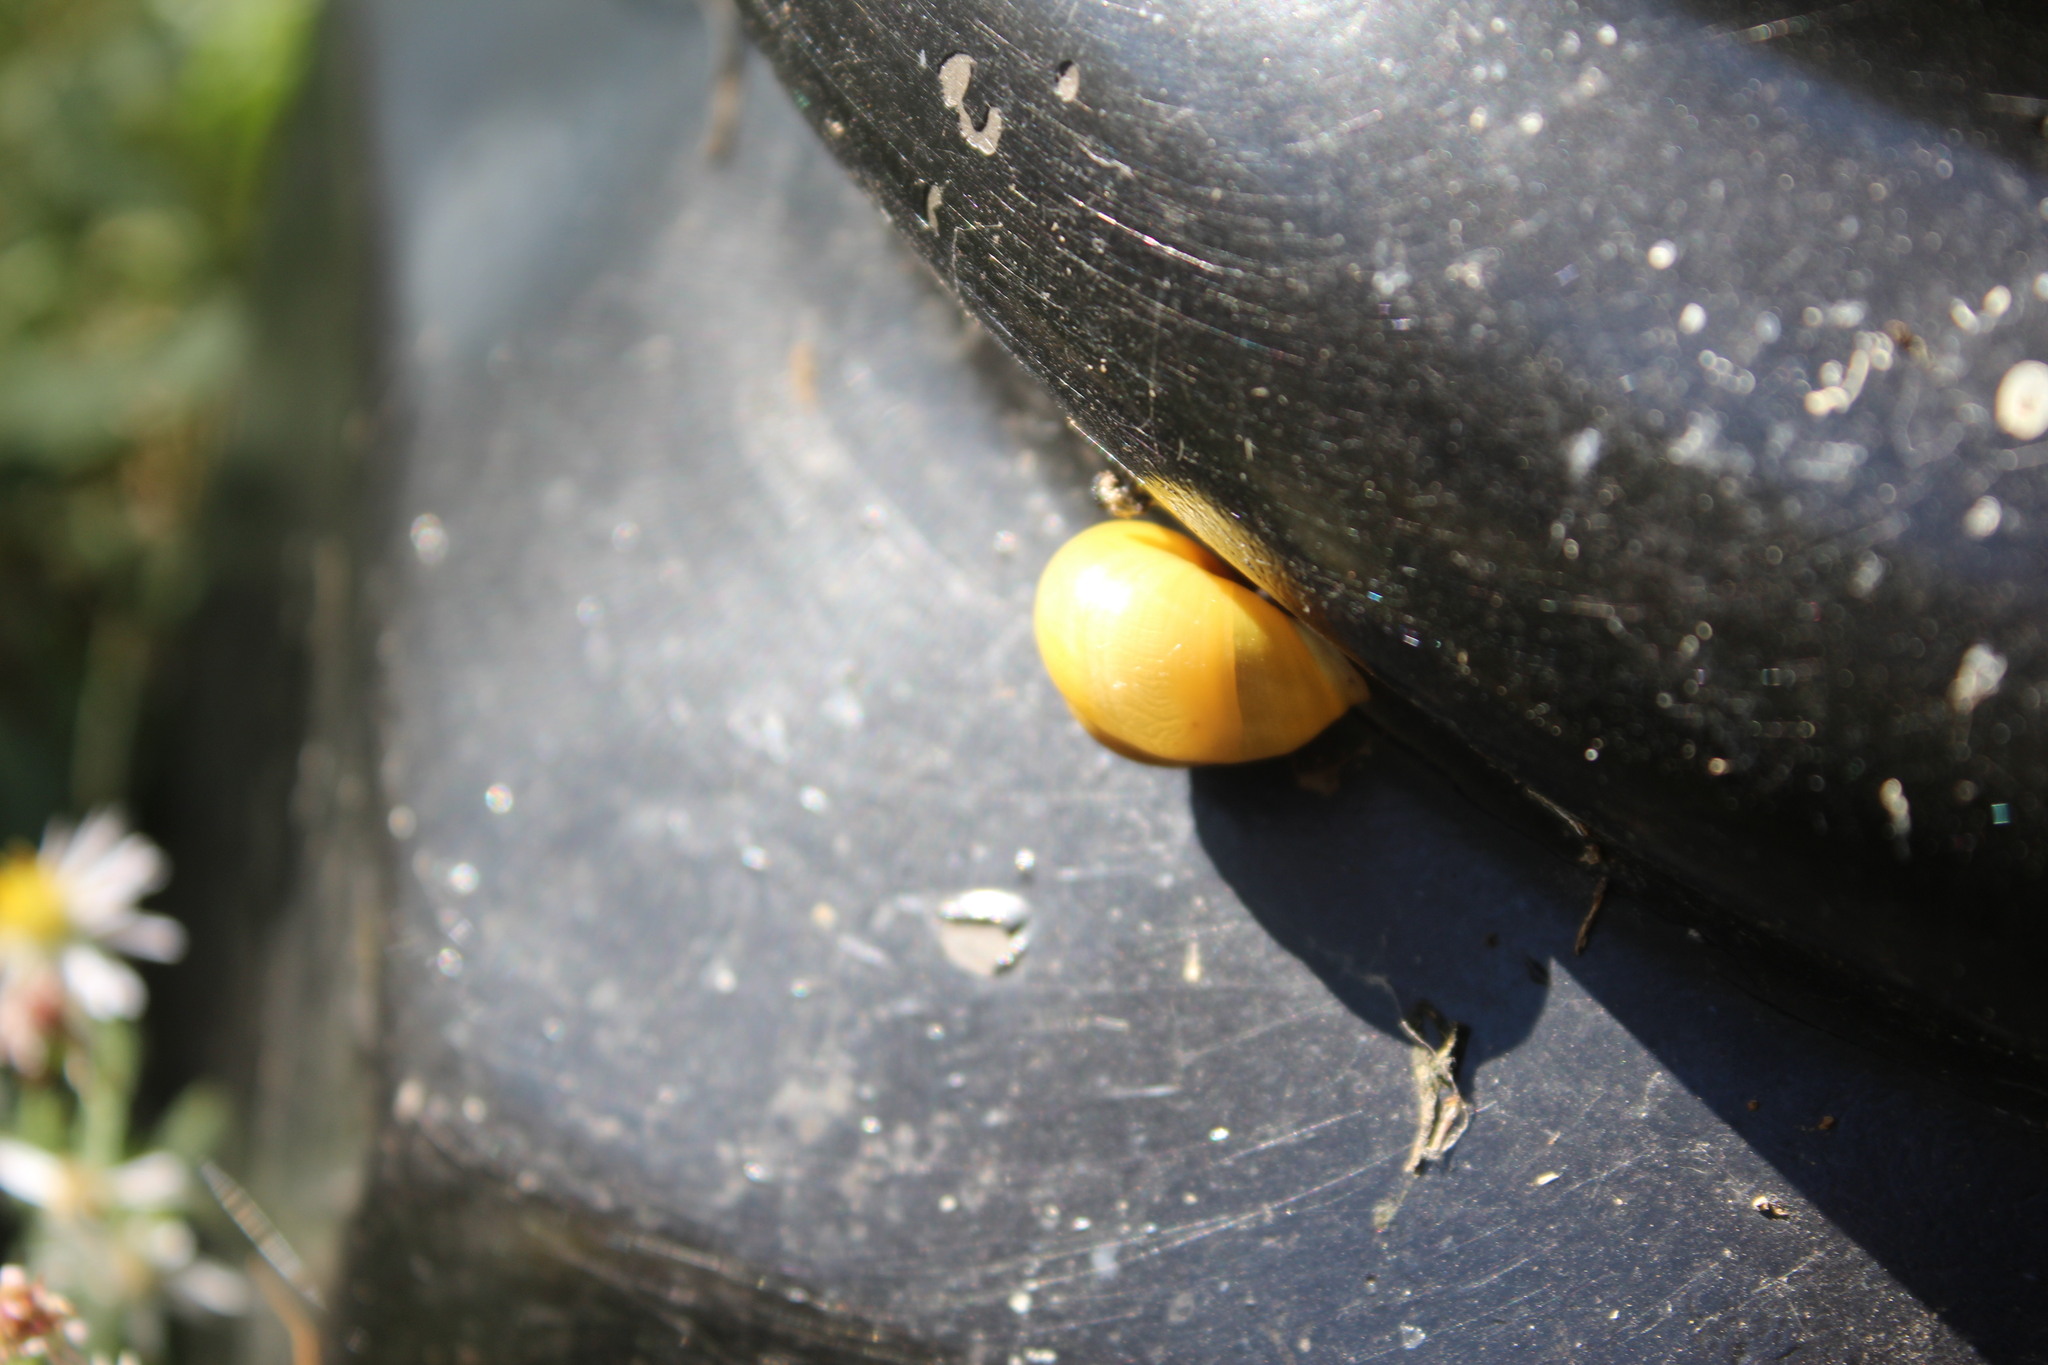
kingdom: Animalia
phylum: Mollusca
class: Gastropoda
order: Stylommatophora
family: Helicidae
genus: Cepaea
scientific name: Cepaea hortensis
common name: White-lip gardensnail
